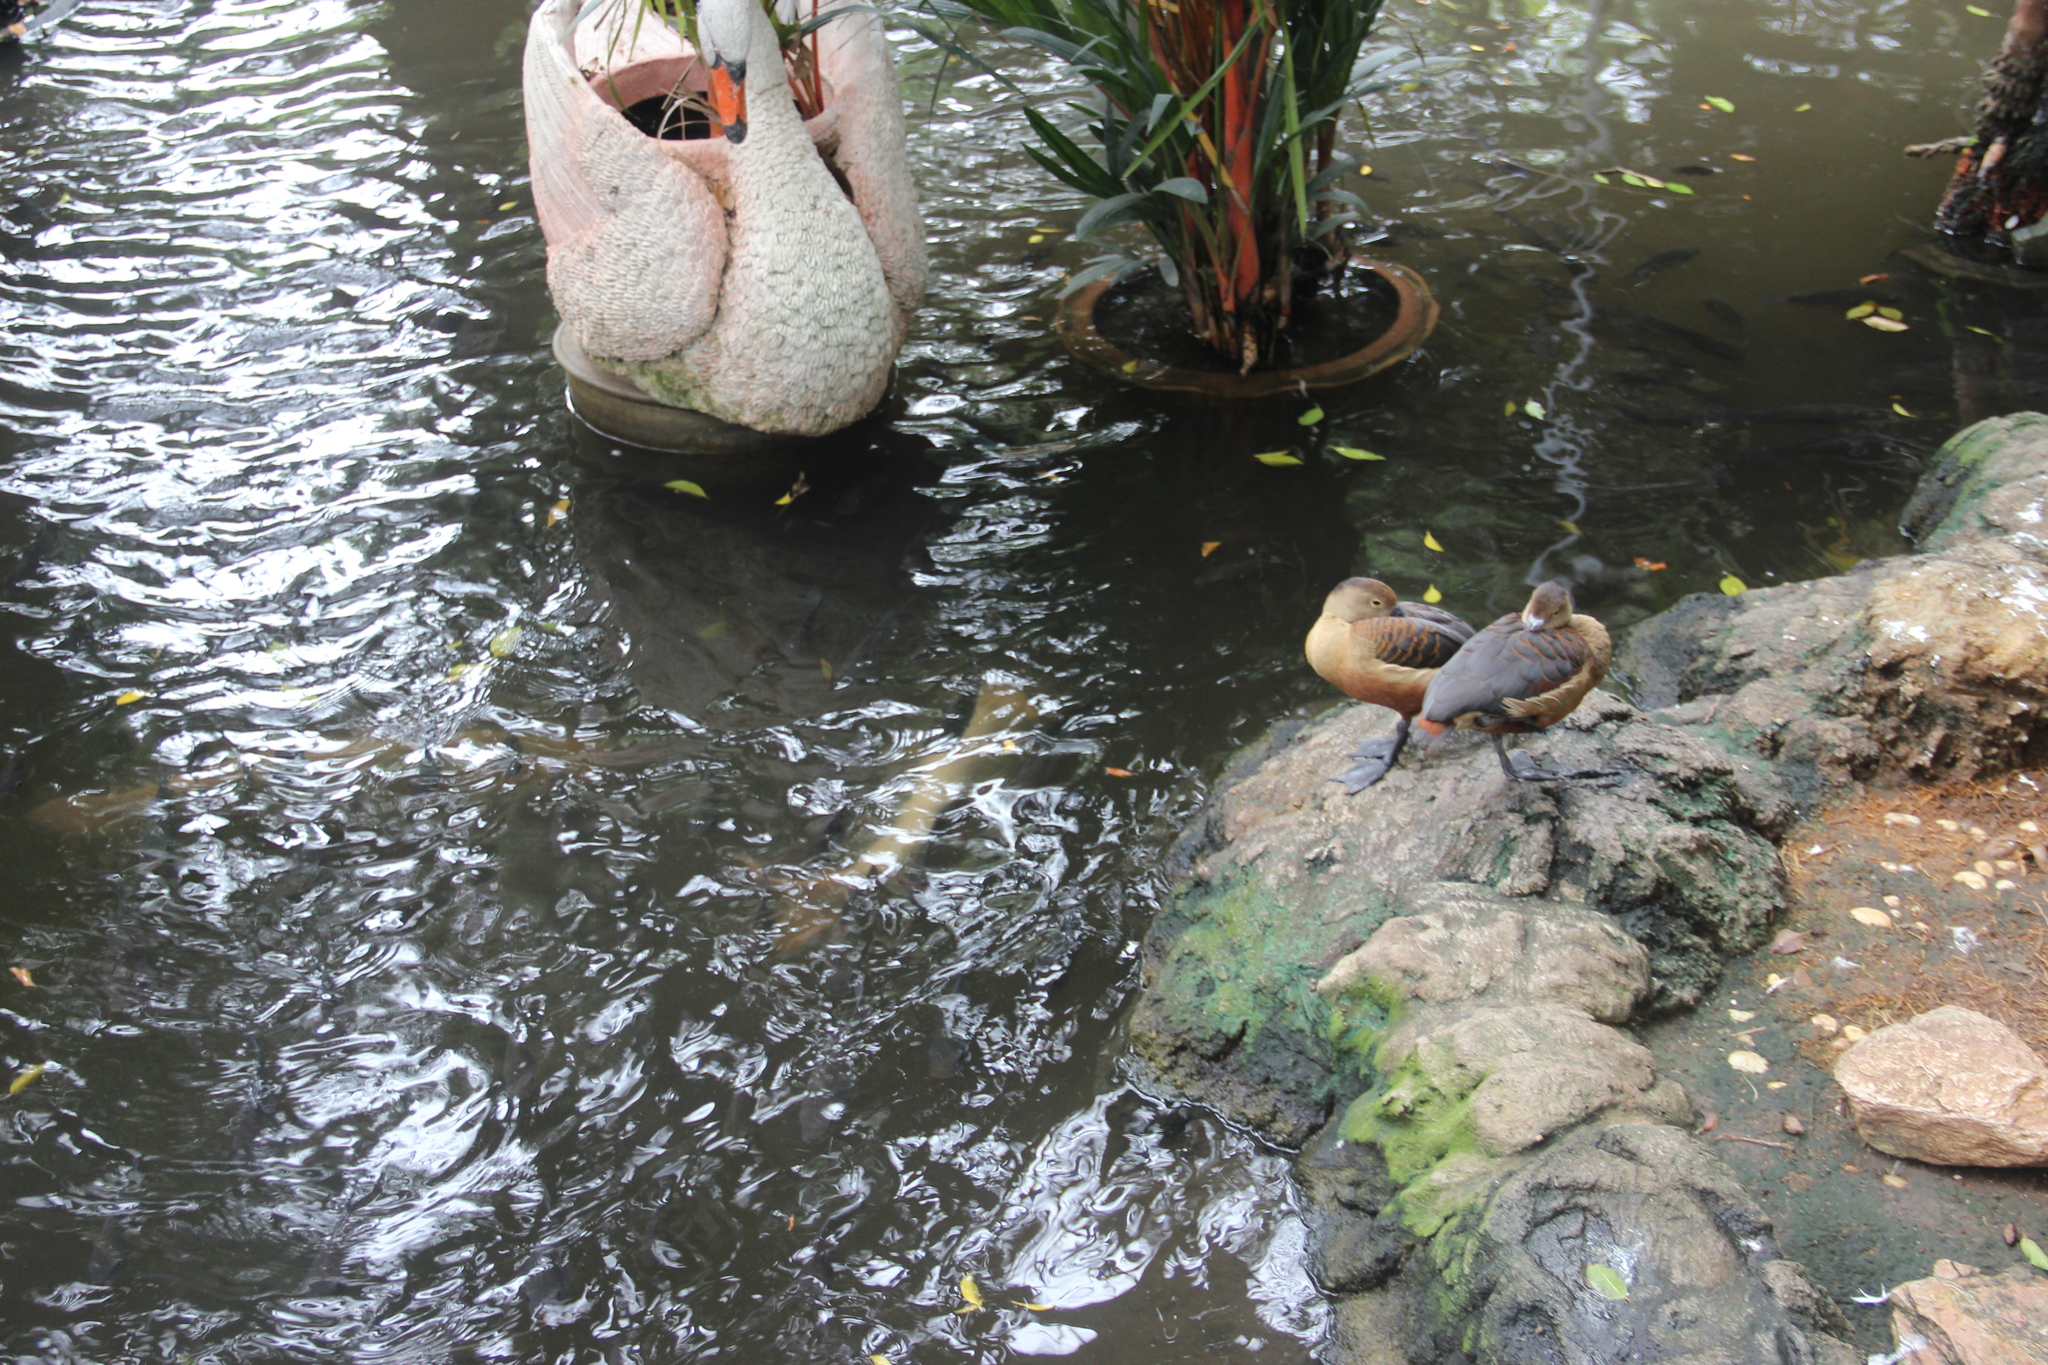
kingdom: Animalia
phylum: Chordata
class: Aves
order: Anseriformes
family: Anatidae
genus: Dendrocygna
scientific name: Dendrocygna javanica
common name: Lesser whistling-duck
